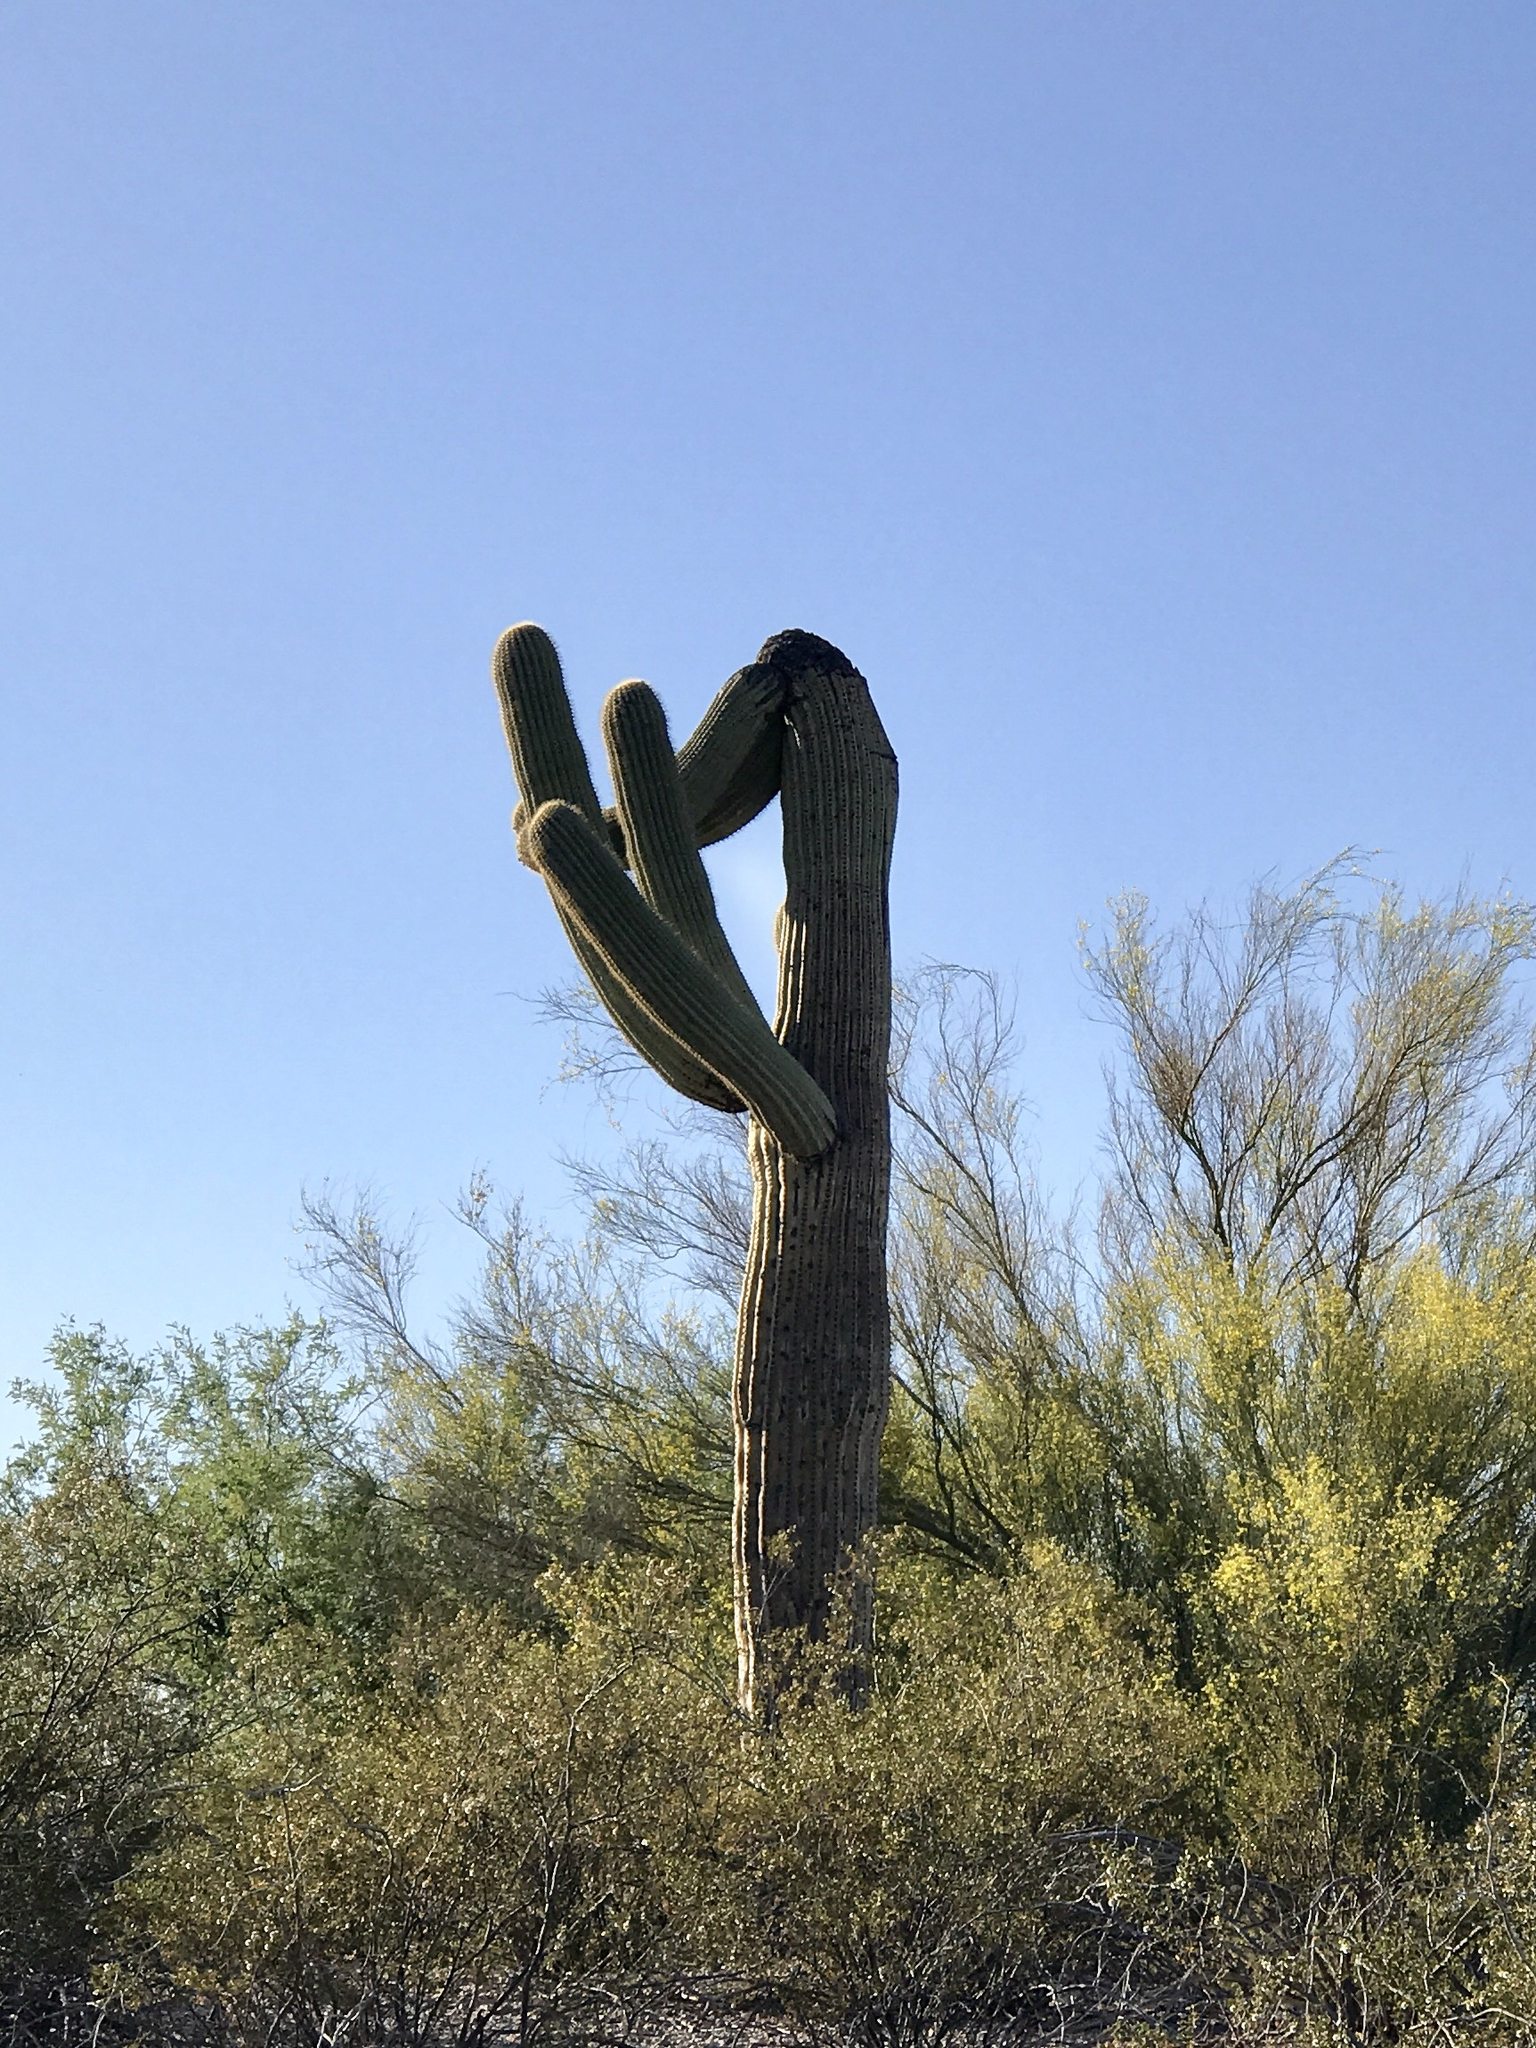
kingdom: Plantae
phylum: Tracheophyta
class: Magnoliopsida
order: Caryophyllales
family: Cactaceae
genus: Carnegiea
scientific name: Carnegiea gigantea
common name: Saguaro
